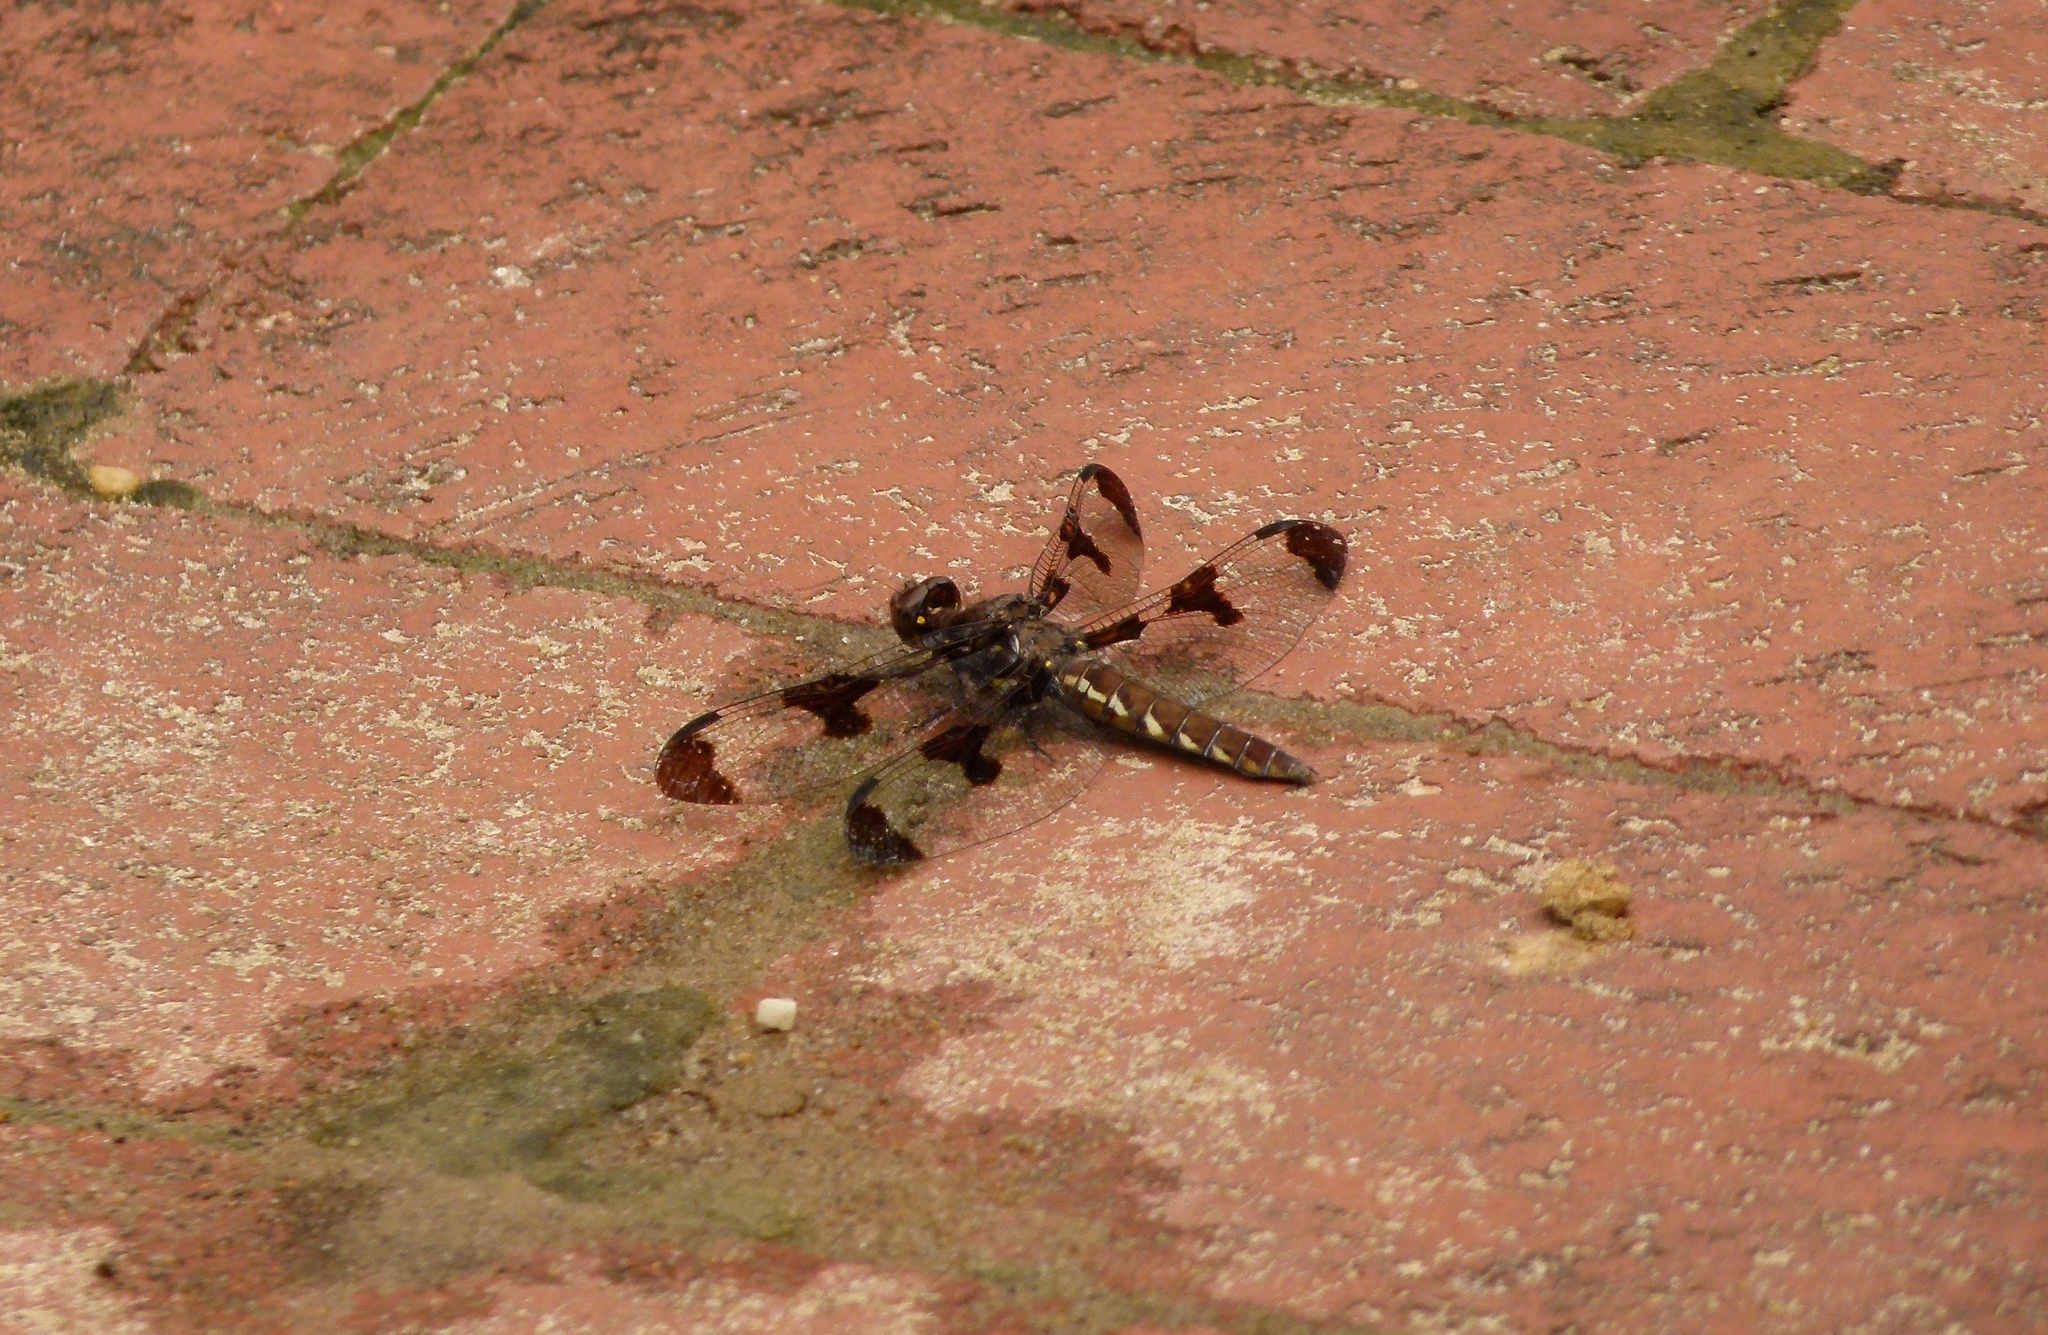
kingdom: Animalia
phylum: Arthropoda
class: Insecta
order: Odonata
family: Libellulidae
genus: Plathemis
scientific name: Plathemis lydia
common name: Common whitetail
